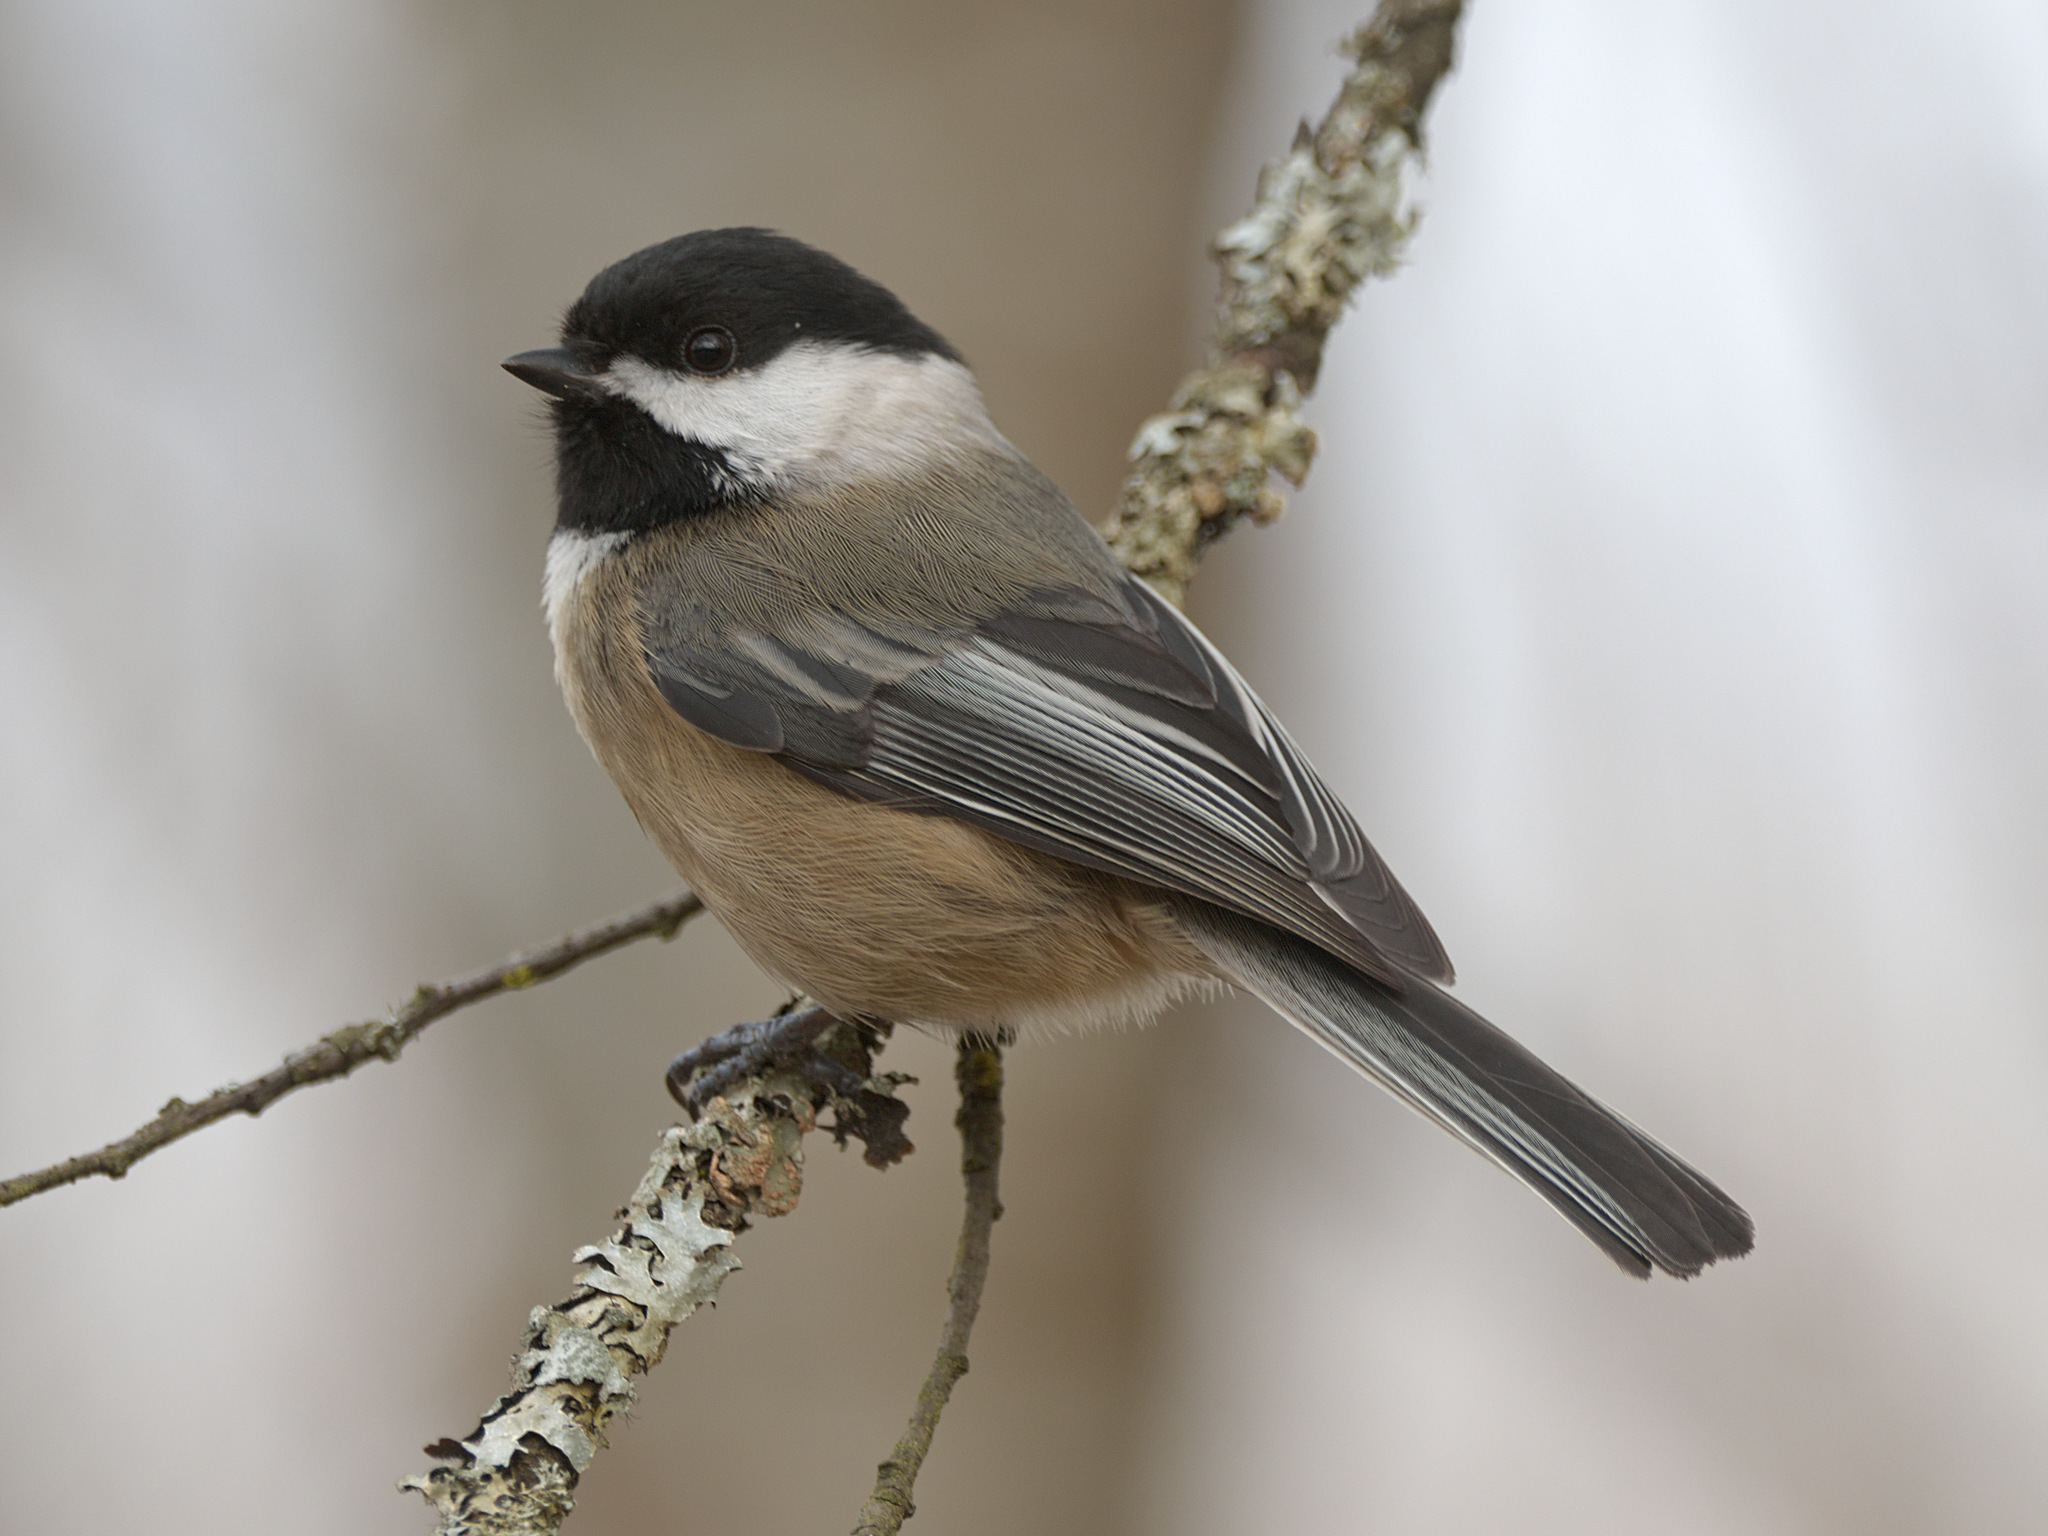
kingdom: Animalia
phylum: Chordata
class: Aves
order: Passeriformes
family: Paridae
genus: Poecile
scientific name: Poecile atricapillus
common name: Black-capped chickadee
